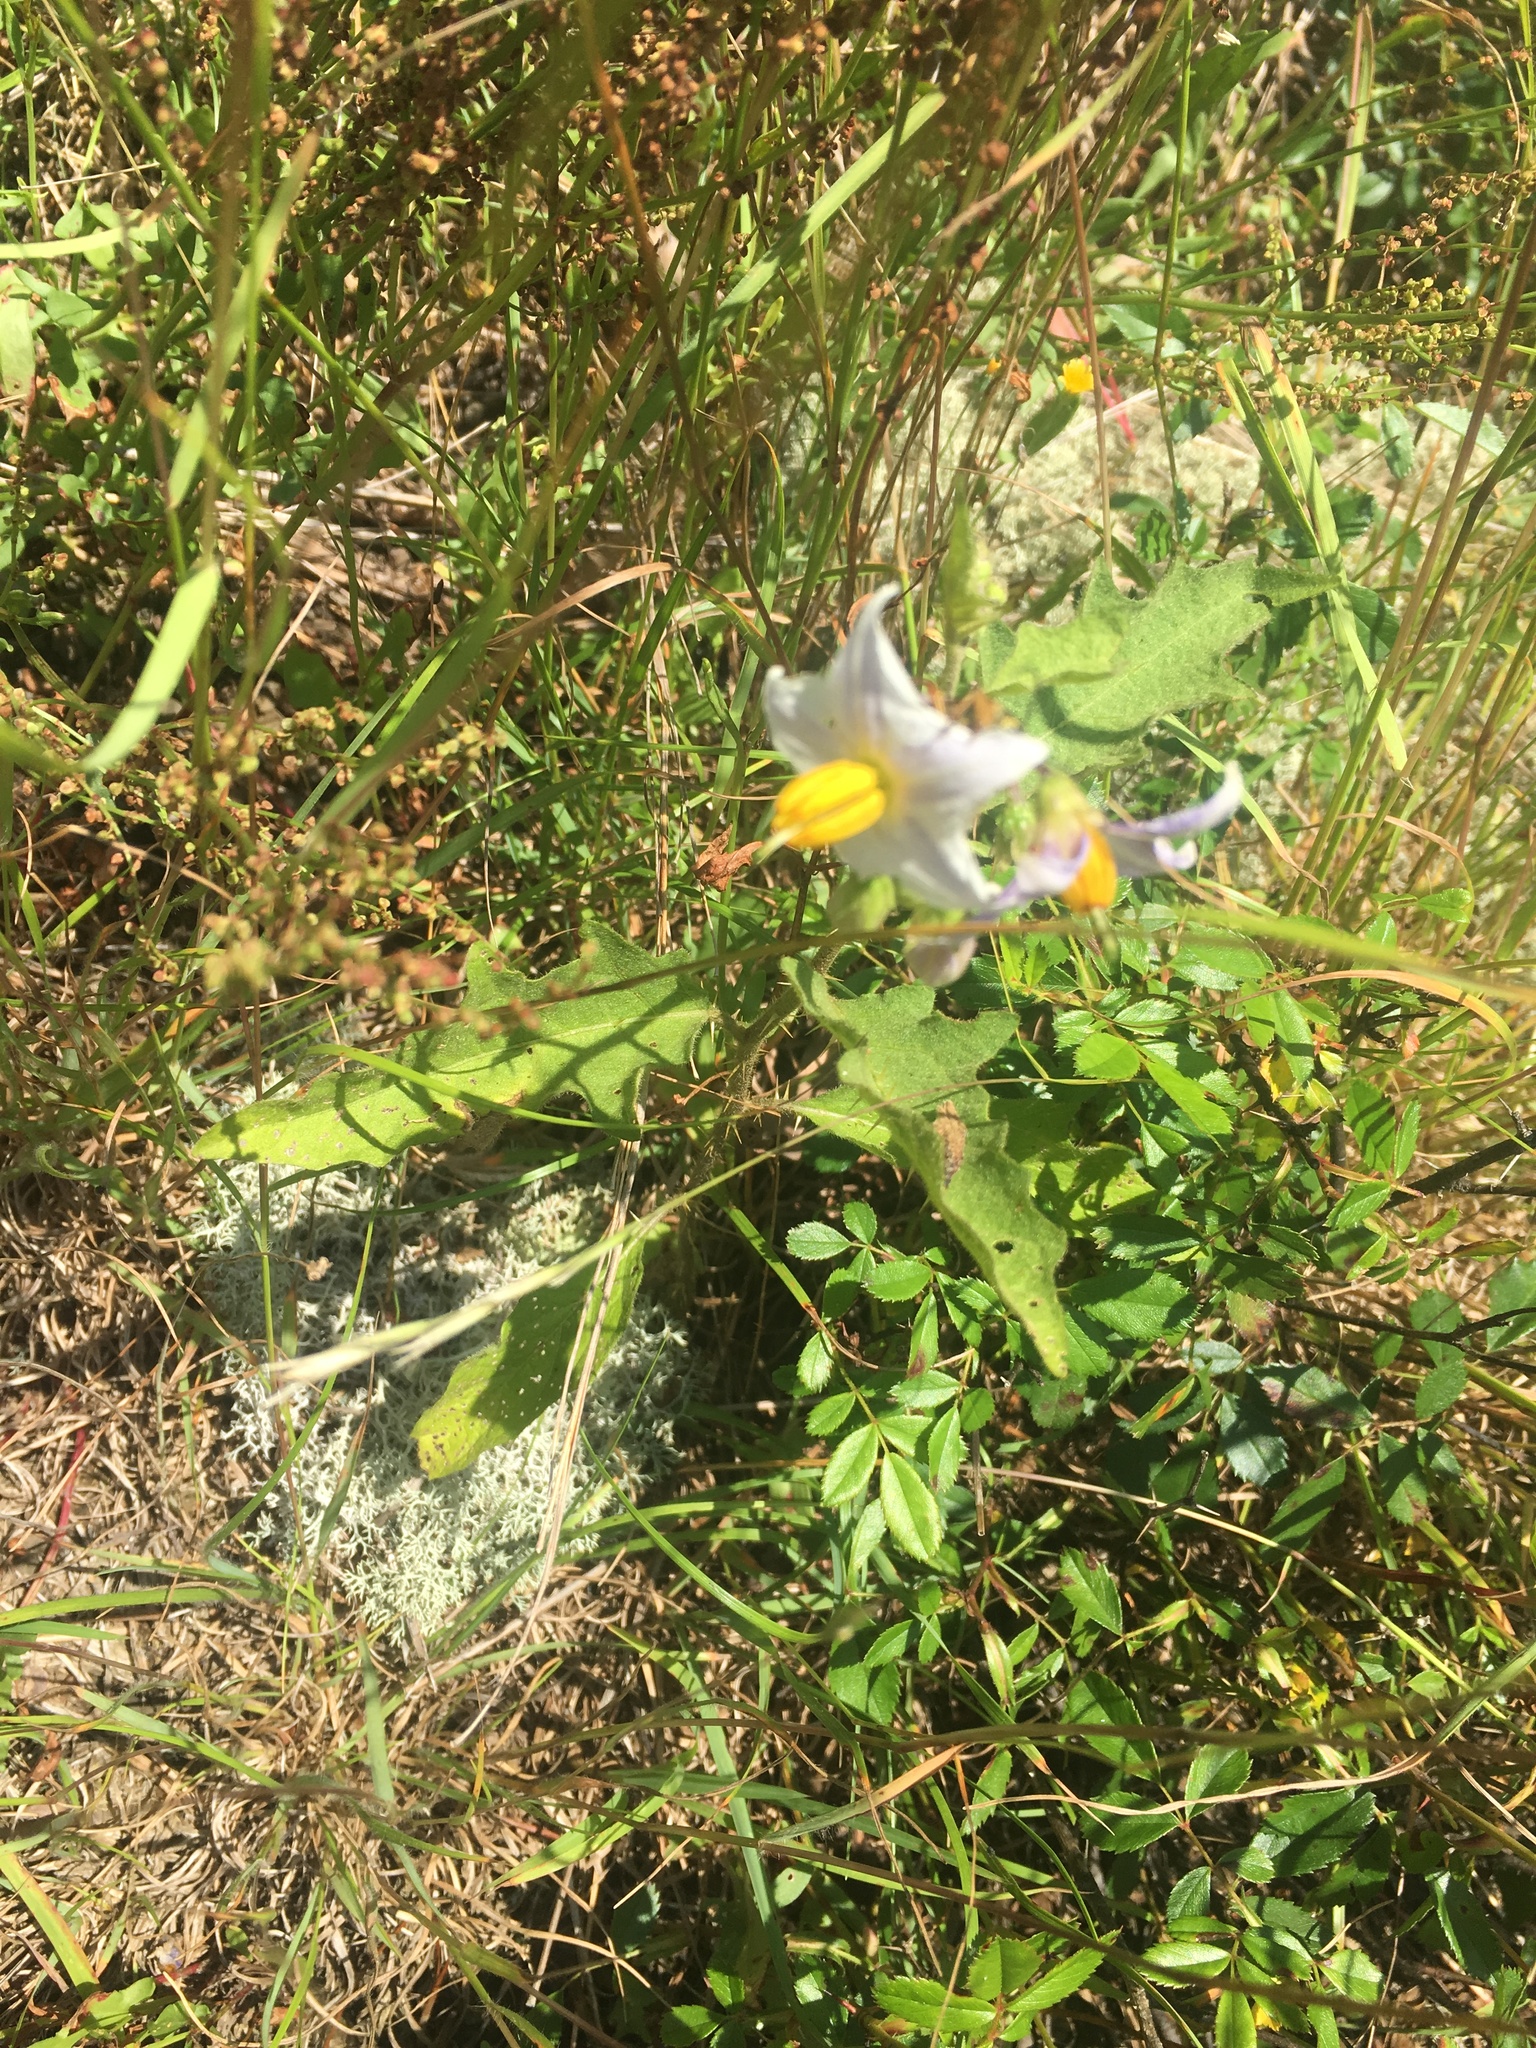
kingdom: Plantae
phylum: Tracheophyta
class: Magnoliopsida
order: Solanales
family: Solanaceae
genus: Solanum
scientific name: Solanum carolinense
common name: Horse-nettle
